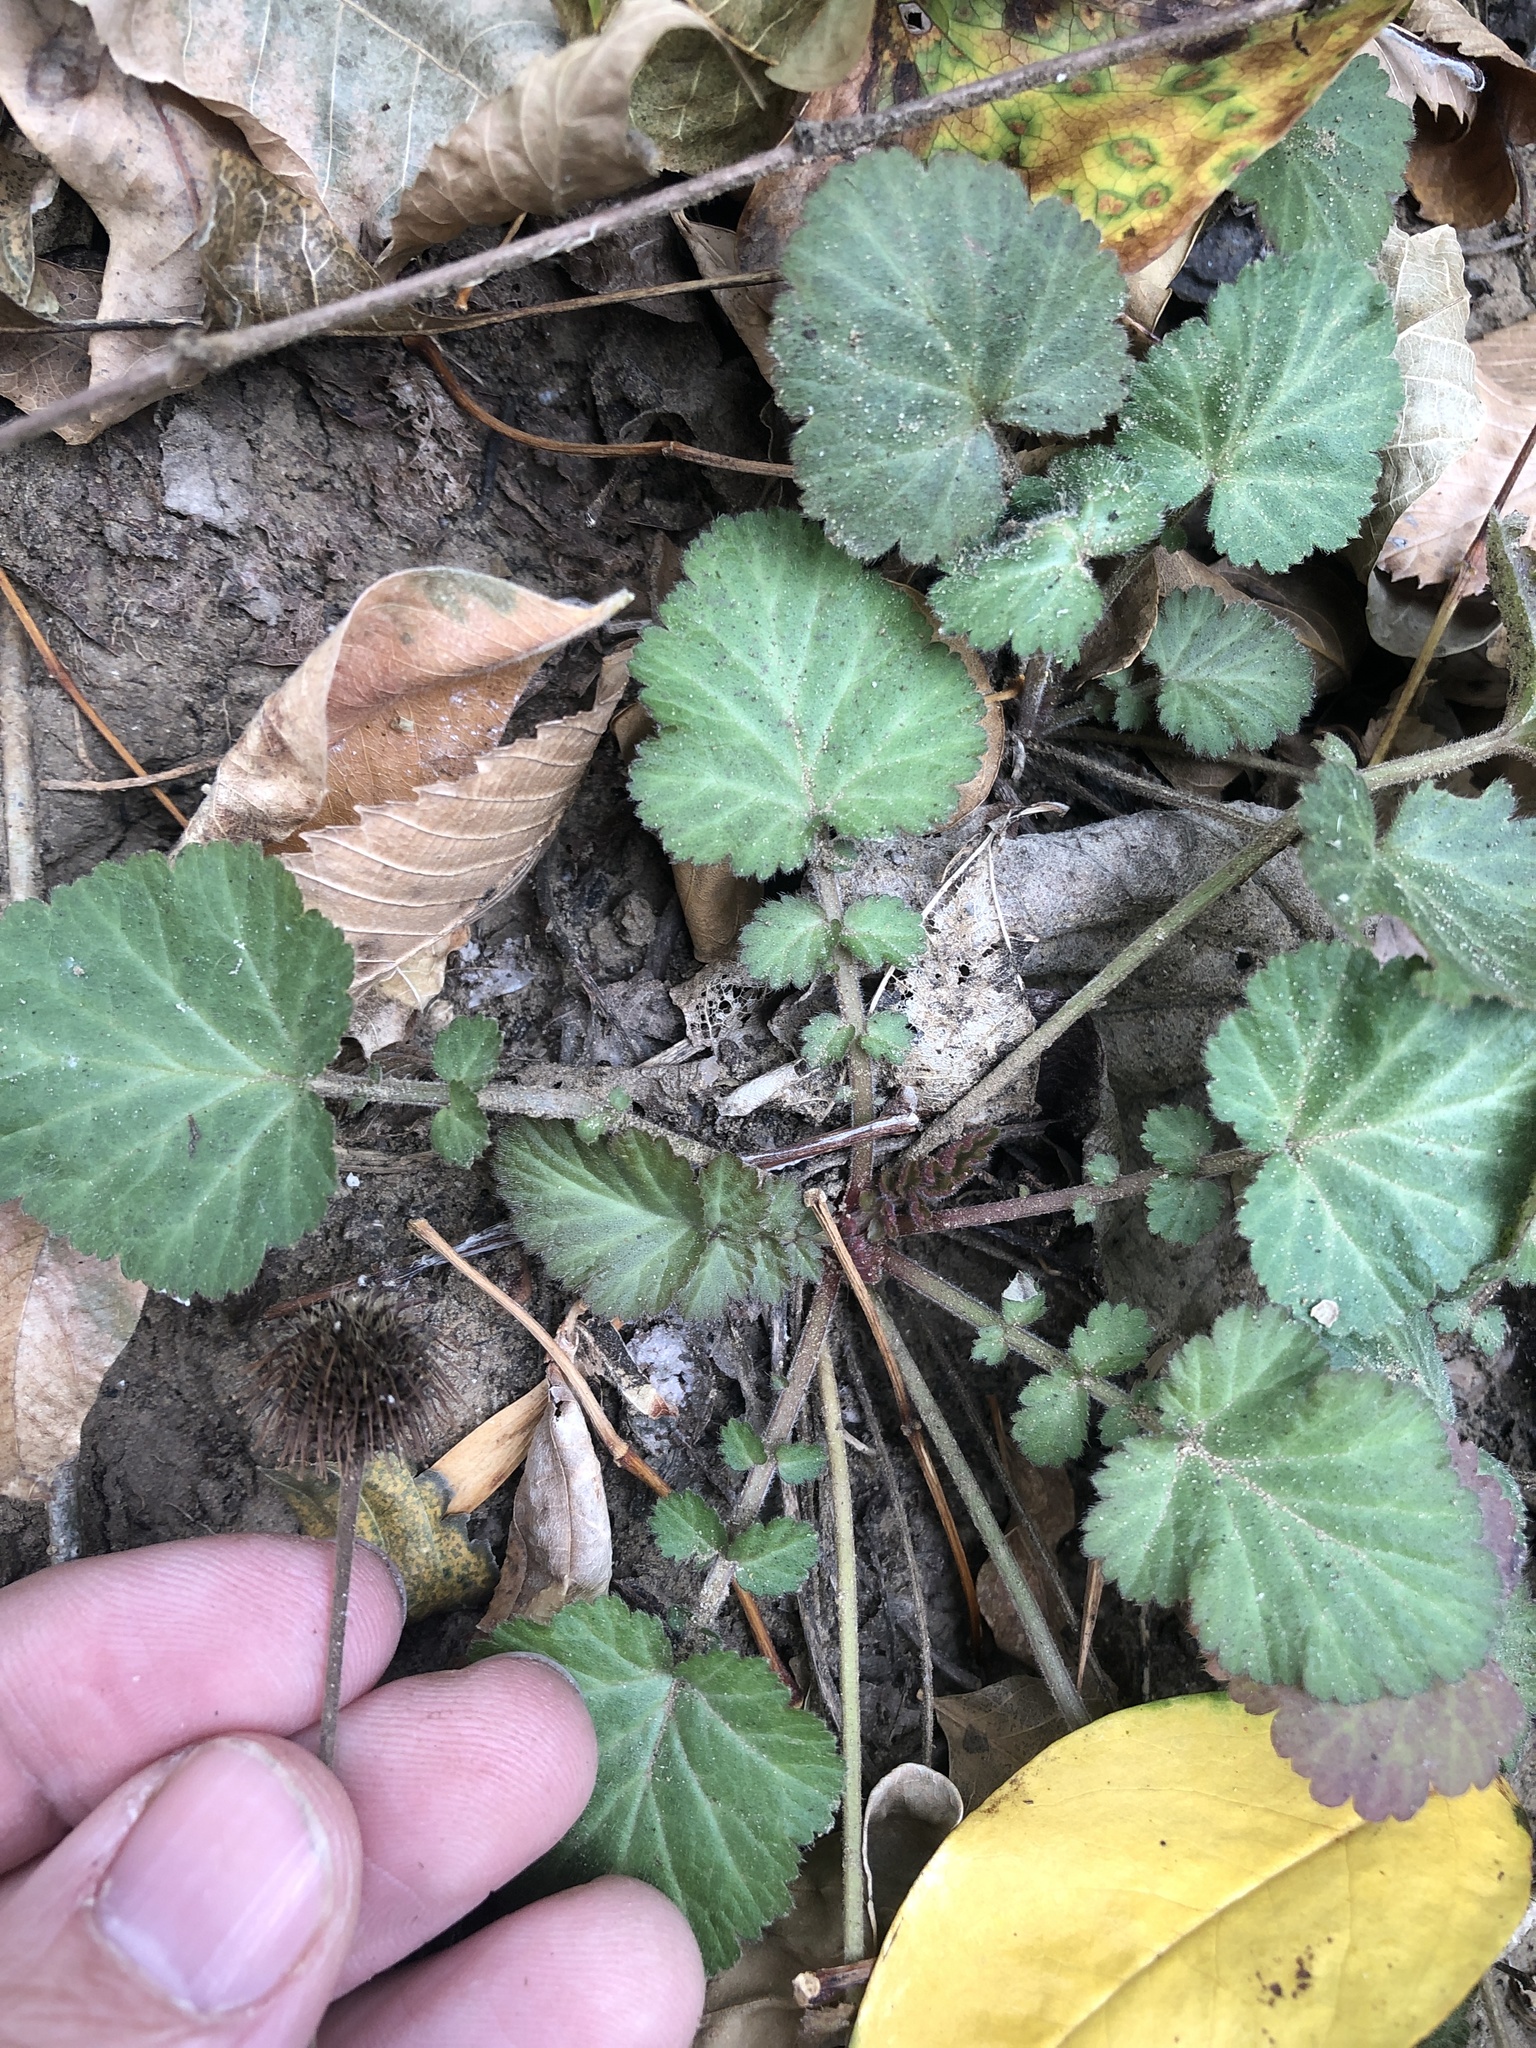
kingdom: Plantae
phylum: Tracheophyta
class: Magnoliopsida
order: Rosales
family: Rosaceae
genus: Geum
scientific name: Geum canadense
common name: White avens
